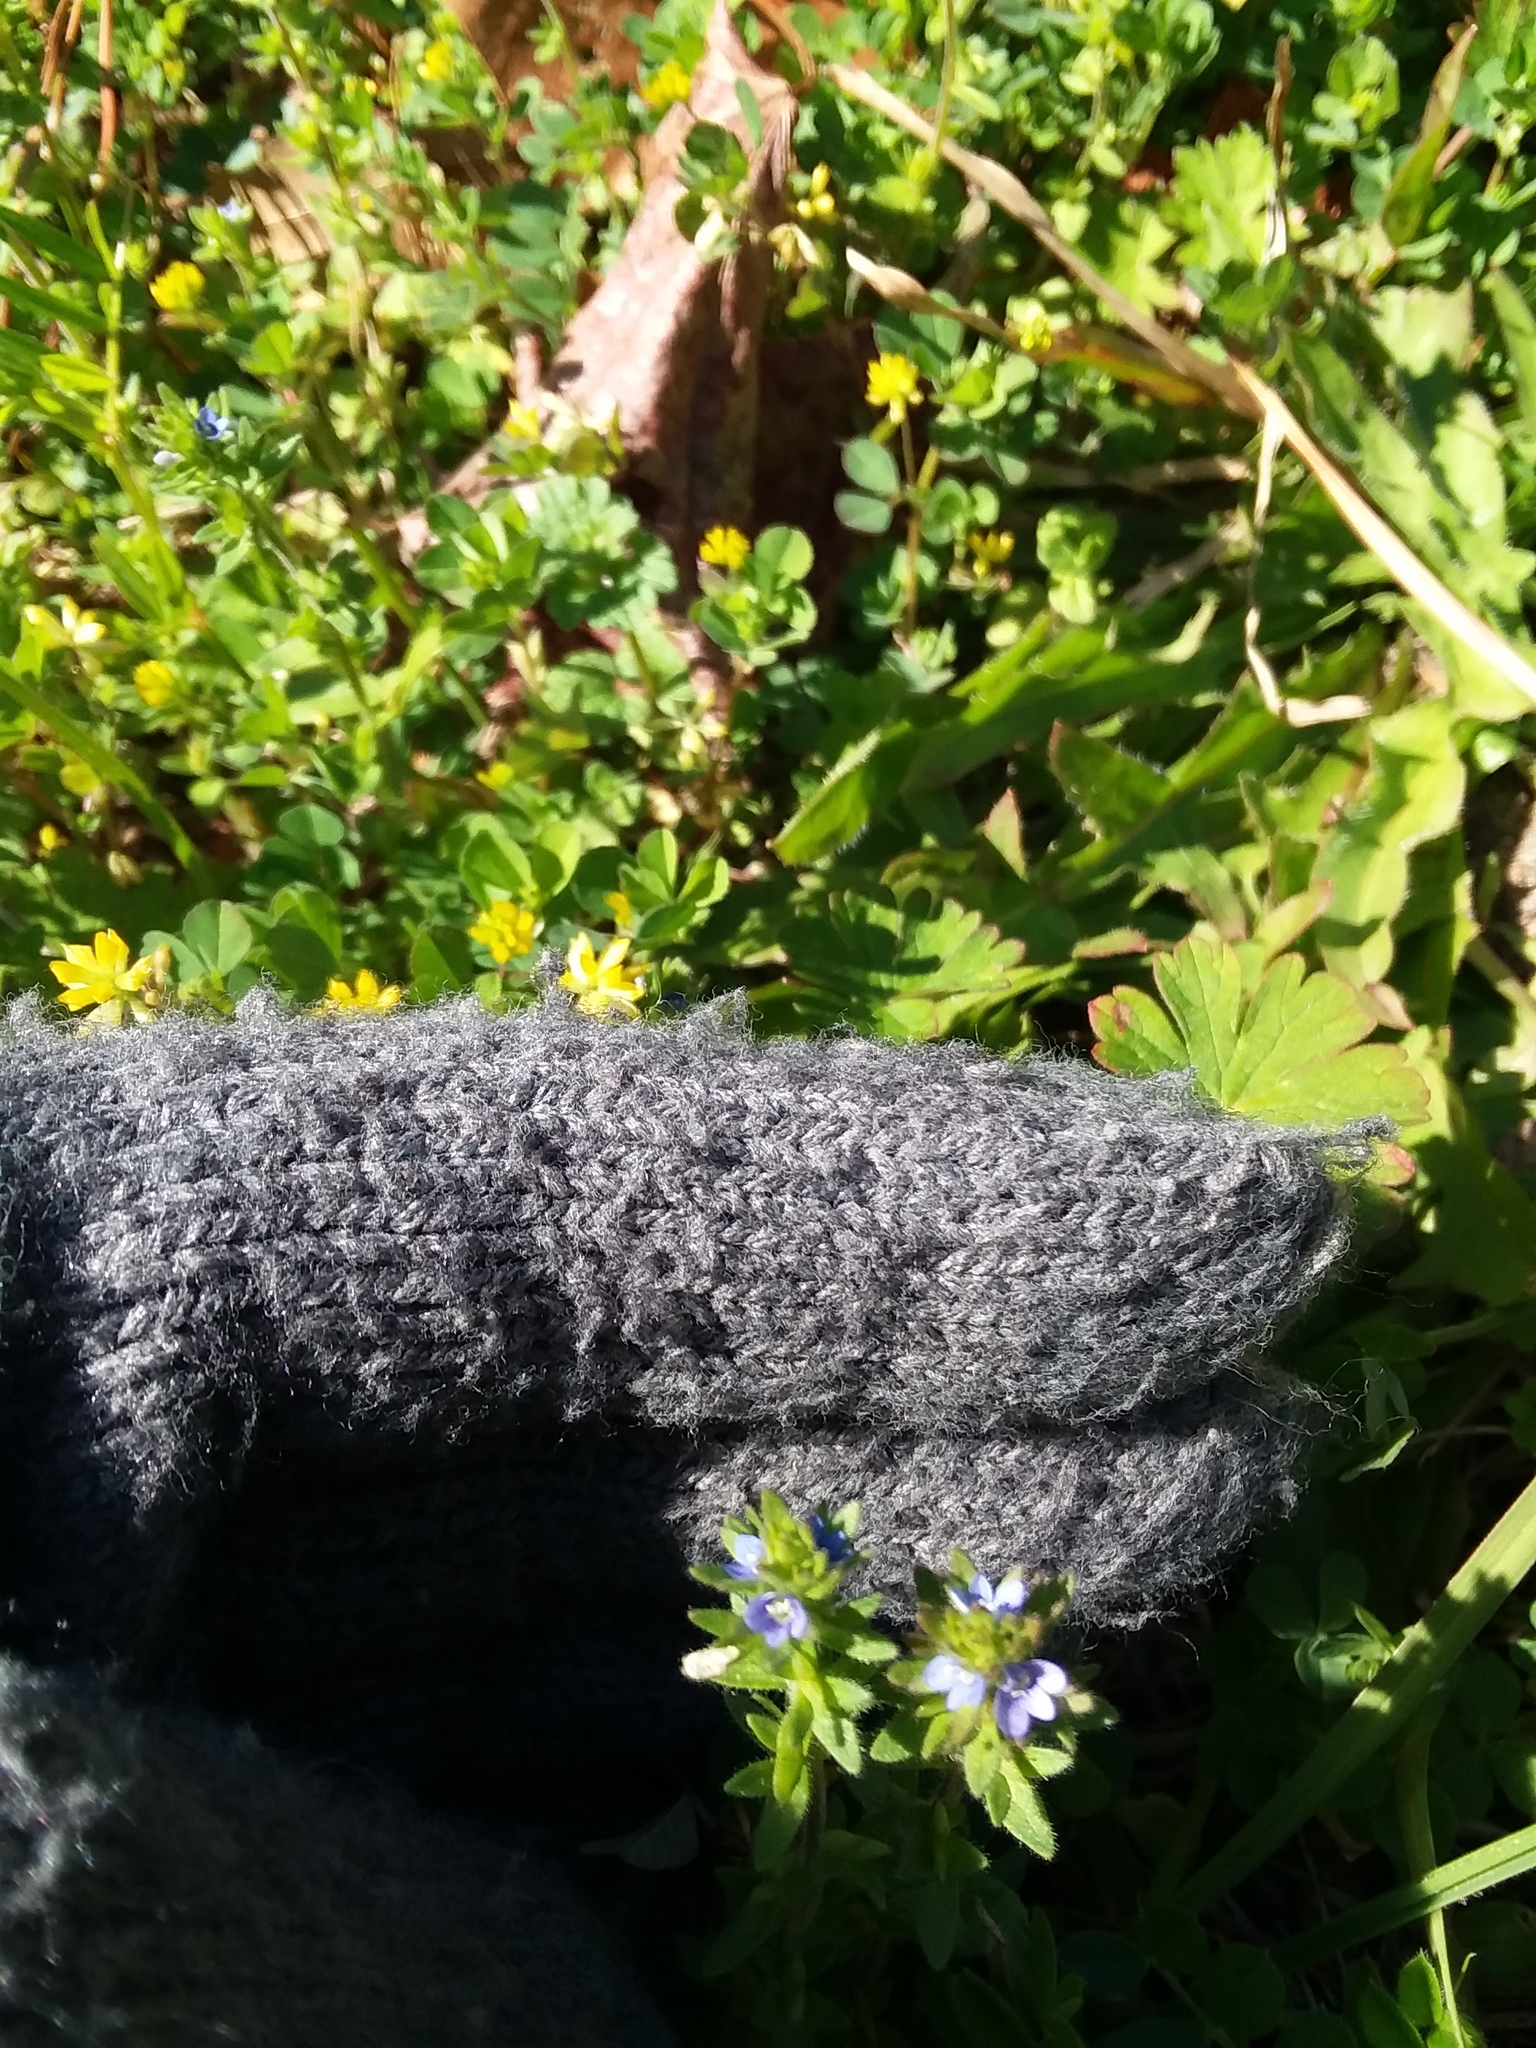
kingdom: Plantae
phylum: Tracheophyta
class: Magnoliopsida
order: Lamiales
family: Plantaginaceae
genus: Veronica
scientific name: Veronica arvensis
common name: Corn speedwell
